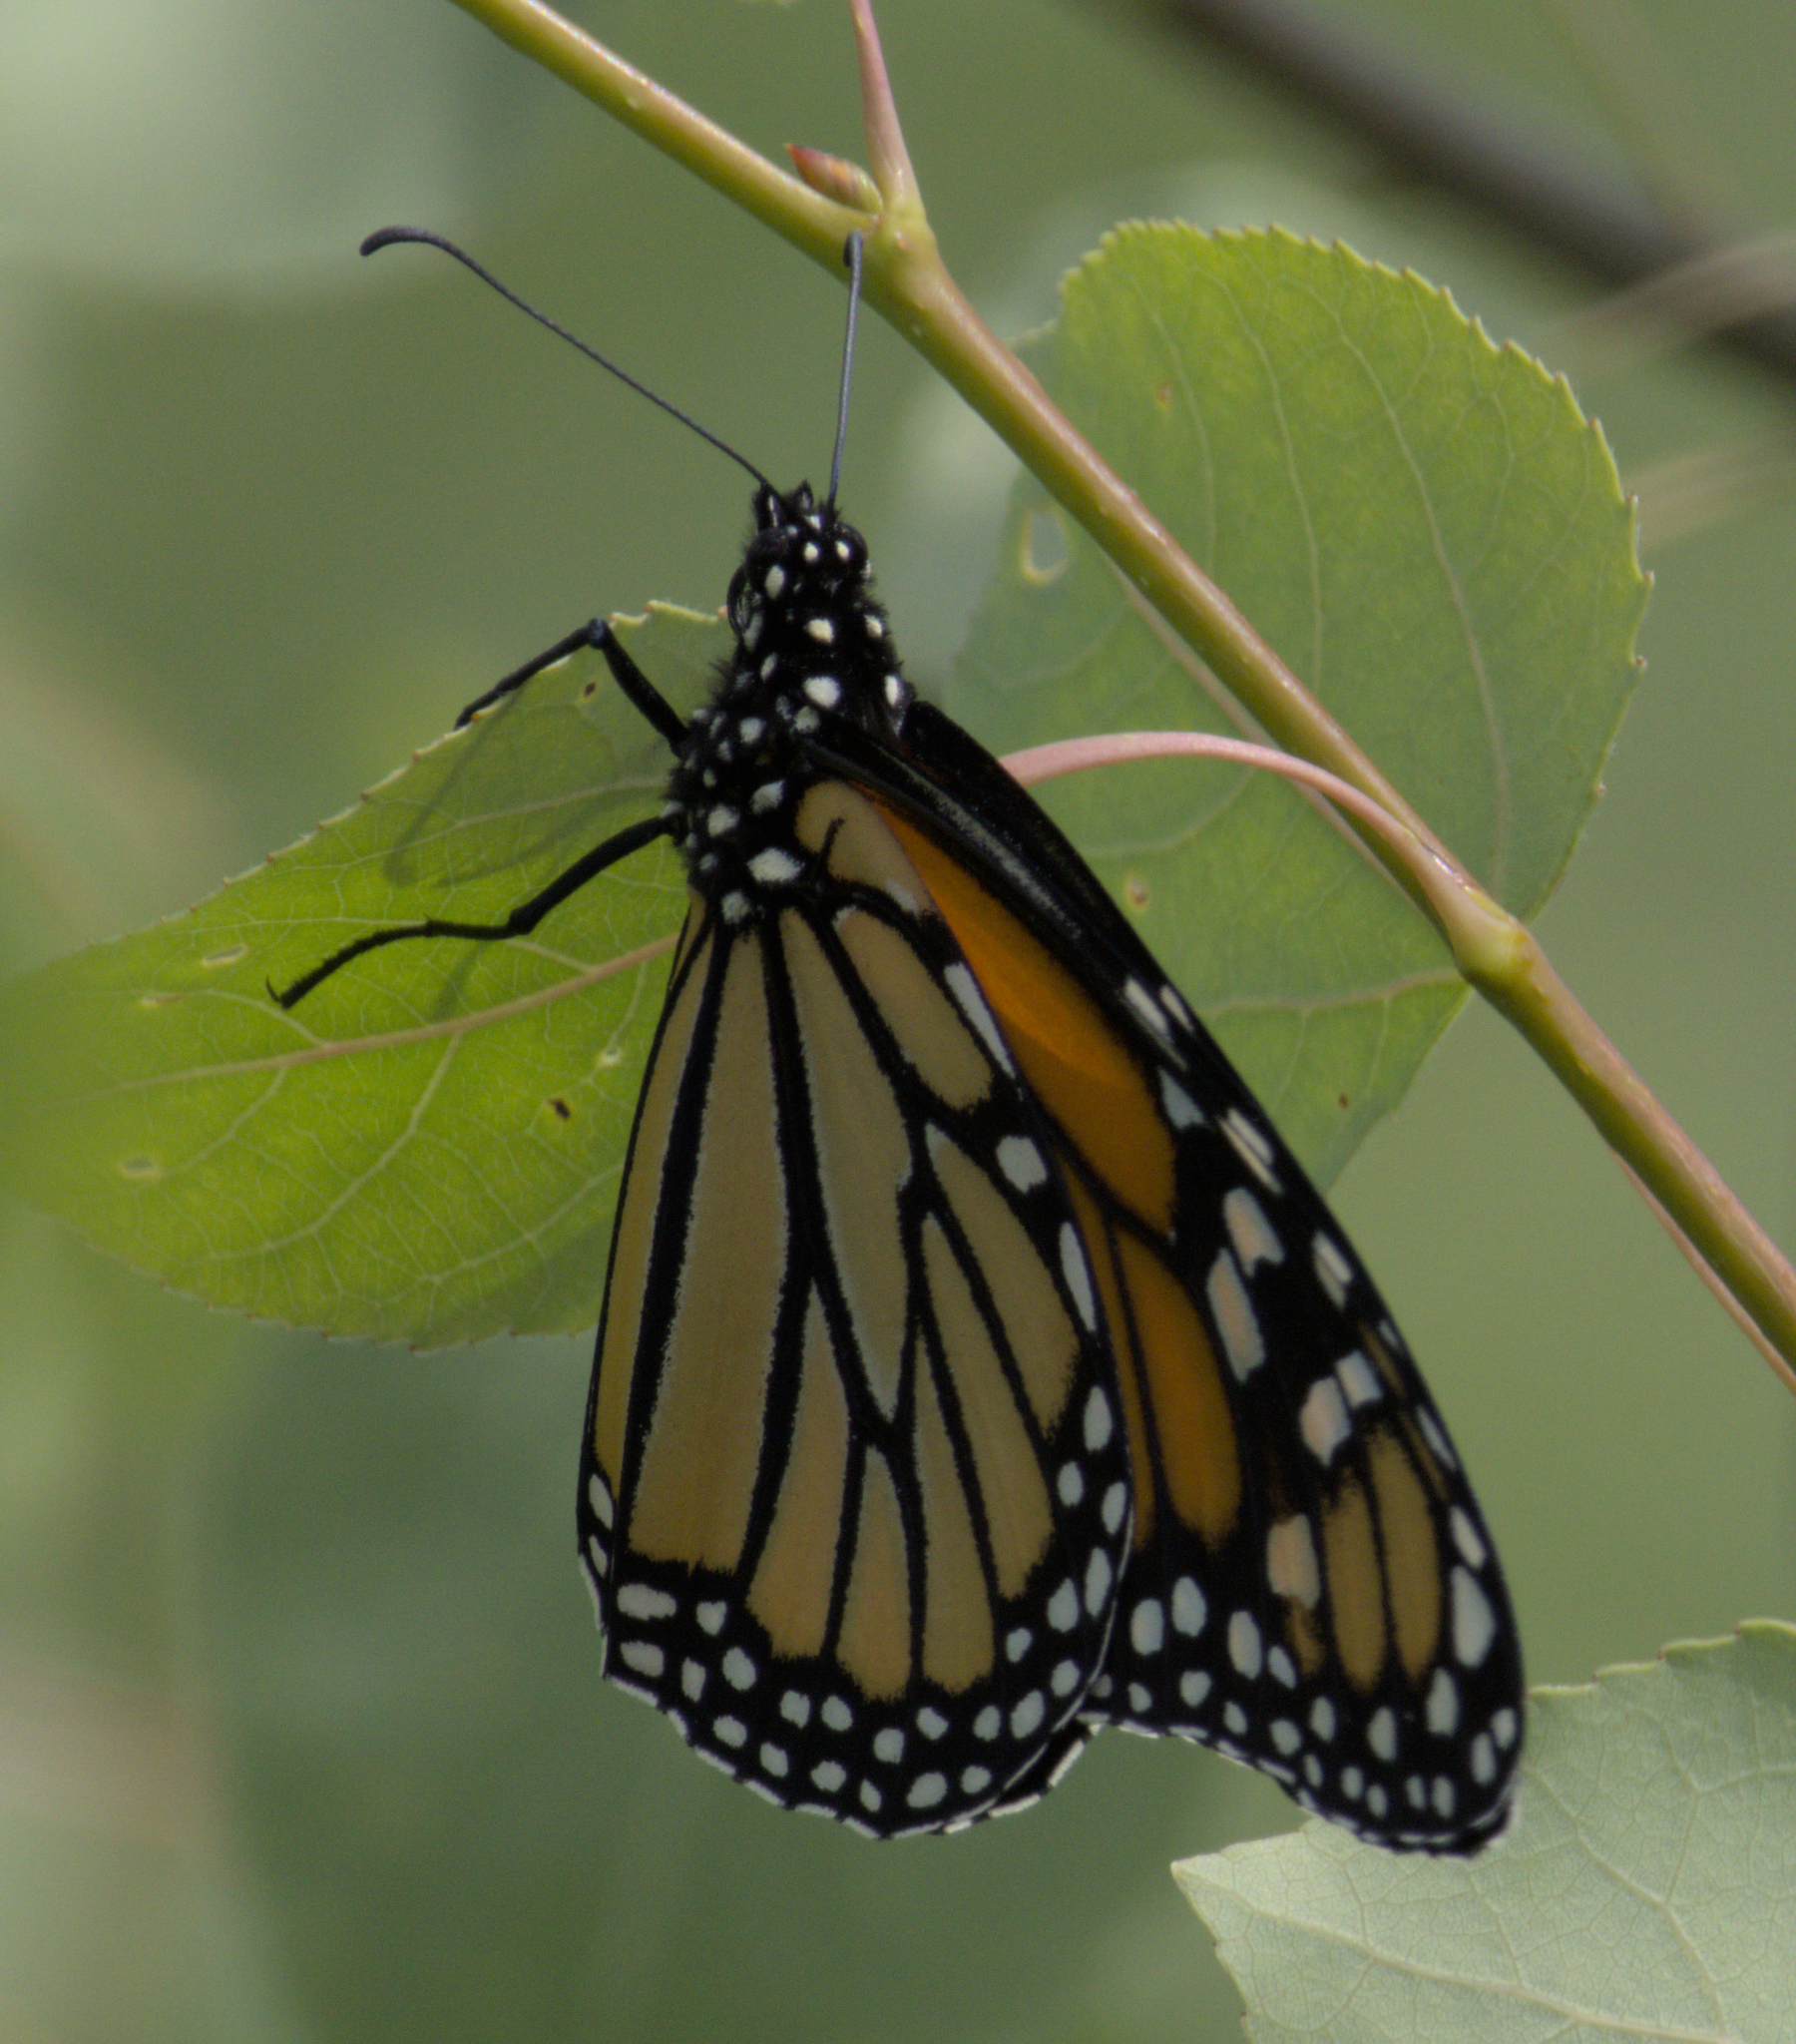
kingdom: Animalia
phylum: Arthropoda
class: Insecta
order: Lepidoptera
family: Nymphalidae
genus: Danaus
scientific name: Danaus plexippus
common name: Monarch
